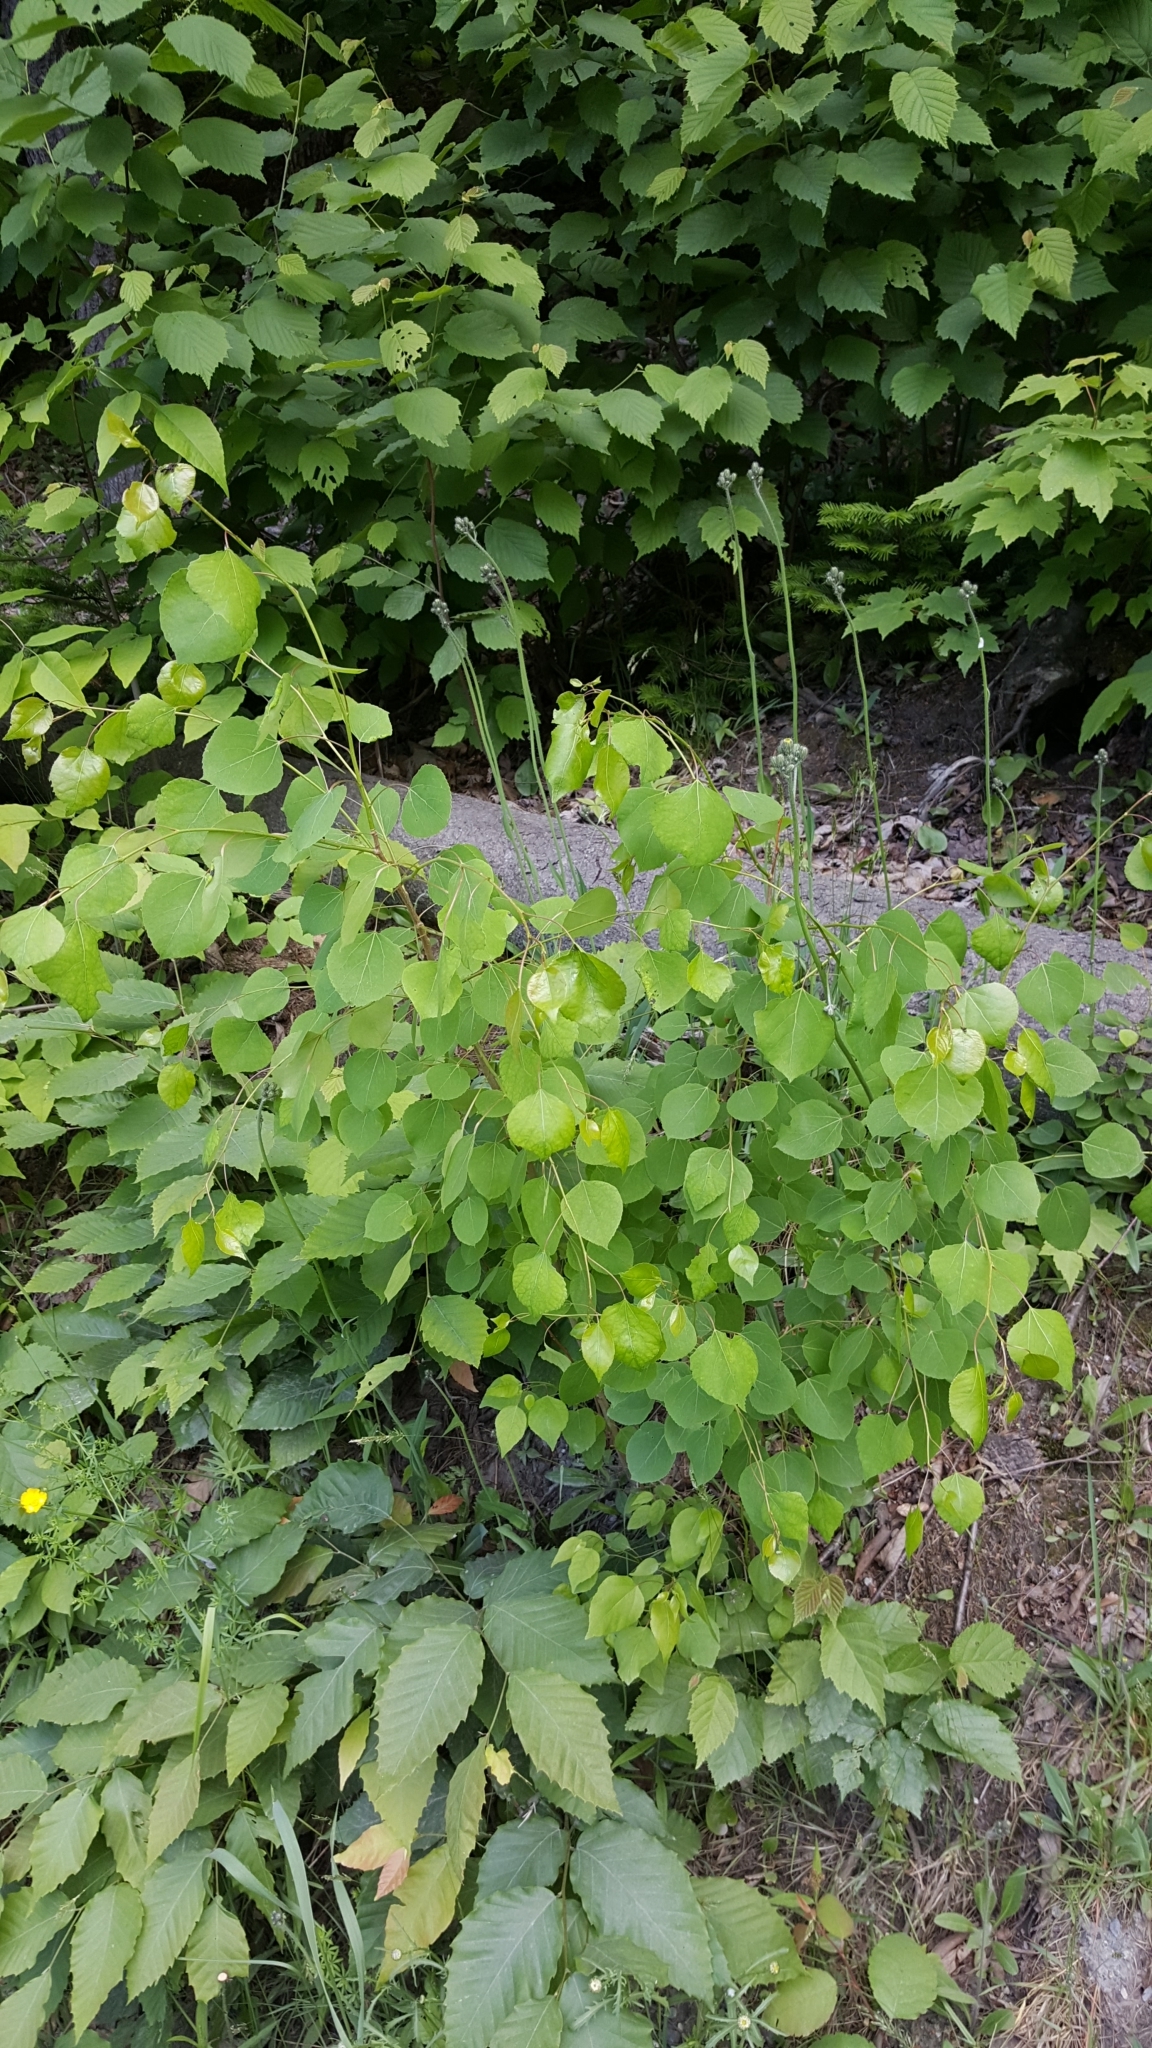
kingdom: Plantae
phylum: Tracheophyta
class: Magnoliopsida
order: Malpighiales
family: Salicaceae
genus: Populus
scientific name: Populus tremuloides
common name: Quaking aspen
